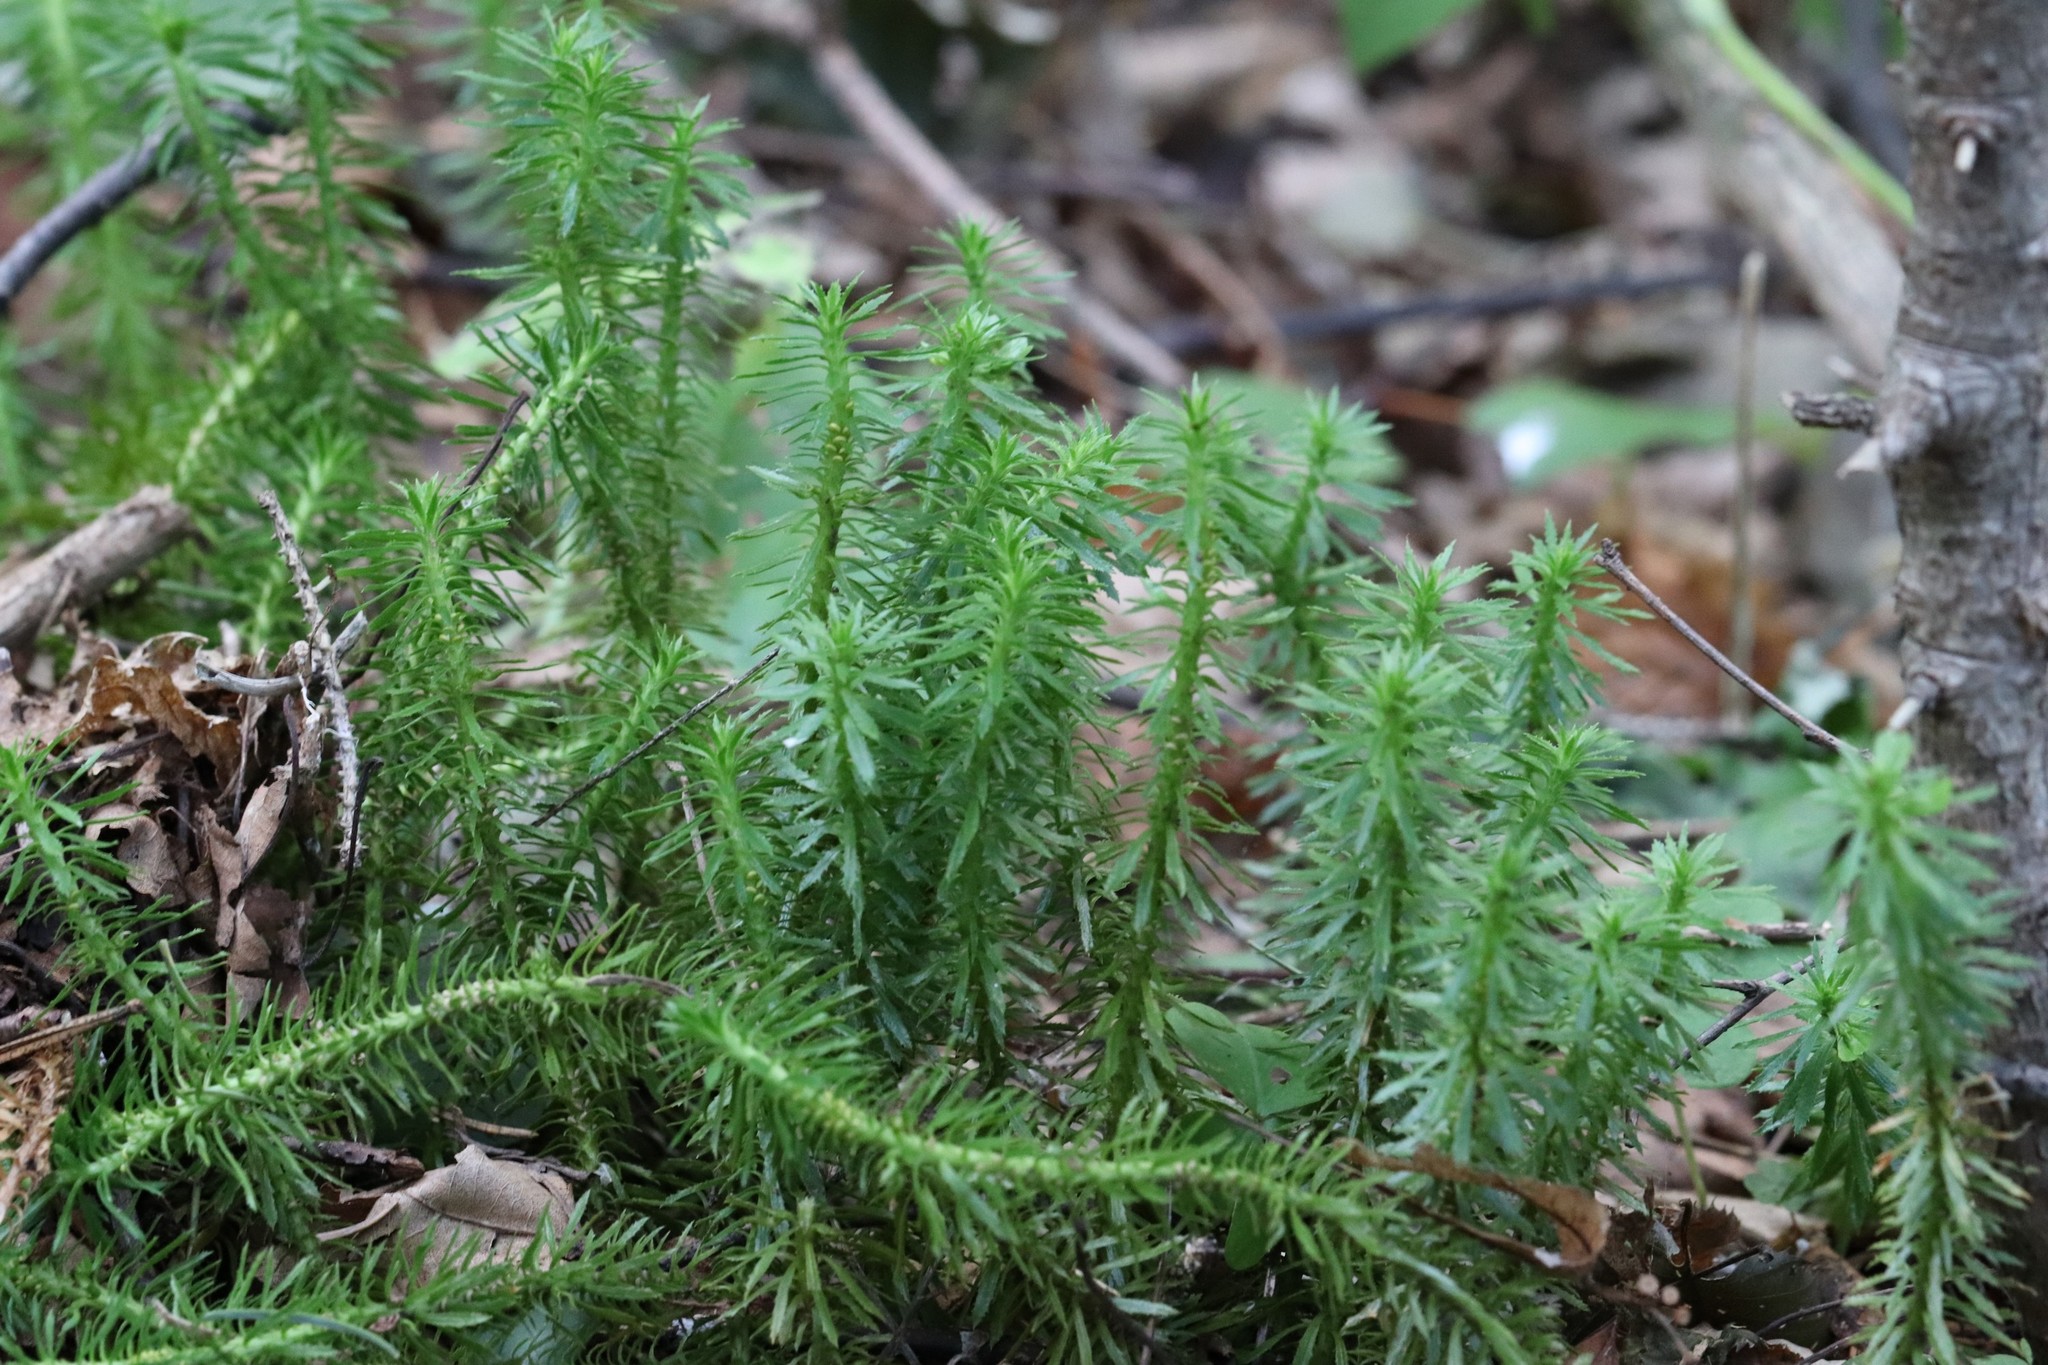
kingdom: Plantae
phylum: Tracheophyta
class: Lycopodiopsida
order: Lycopodiales
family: Lycopodiaceae
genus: Huperzia
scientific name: Huperzia serrata
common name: Toothed club-moss
